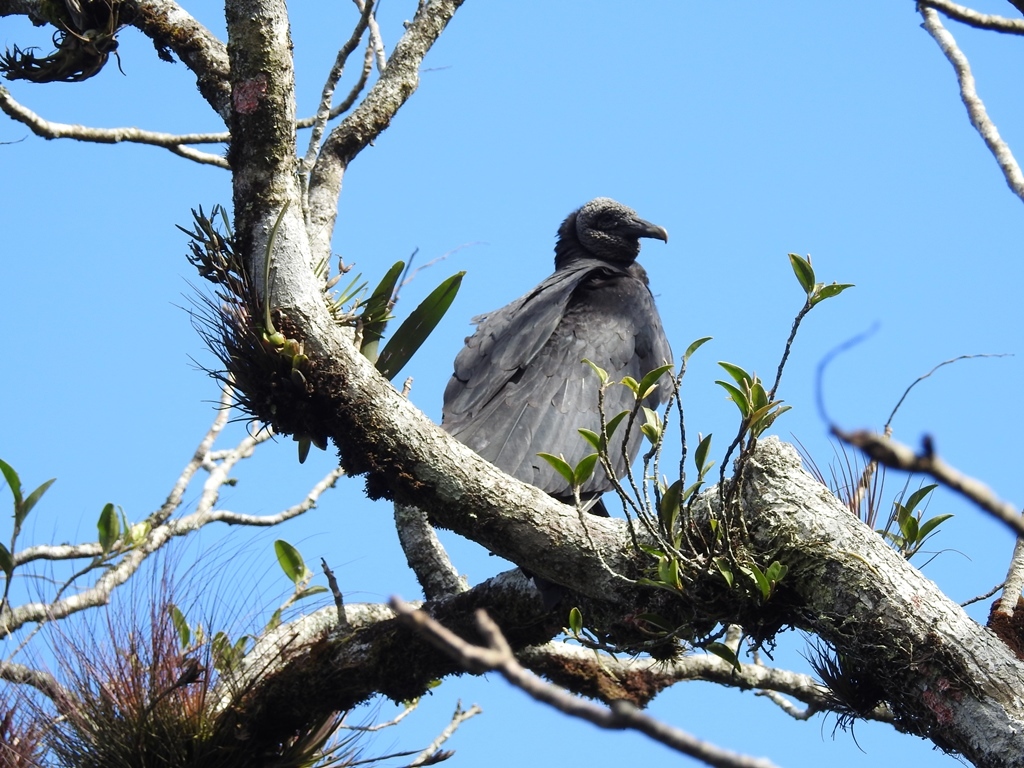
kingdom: Animalia
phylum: Chordata
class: Aves
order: Accipitriformes
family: Cathartidae
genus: Coragyps
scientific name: Coragyps atratus
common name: Black vulture
